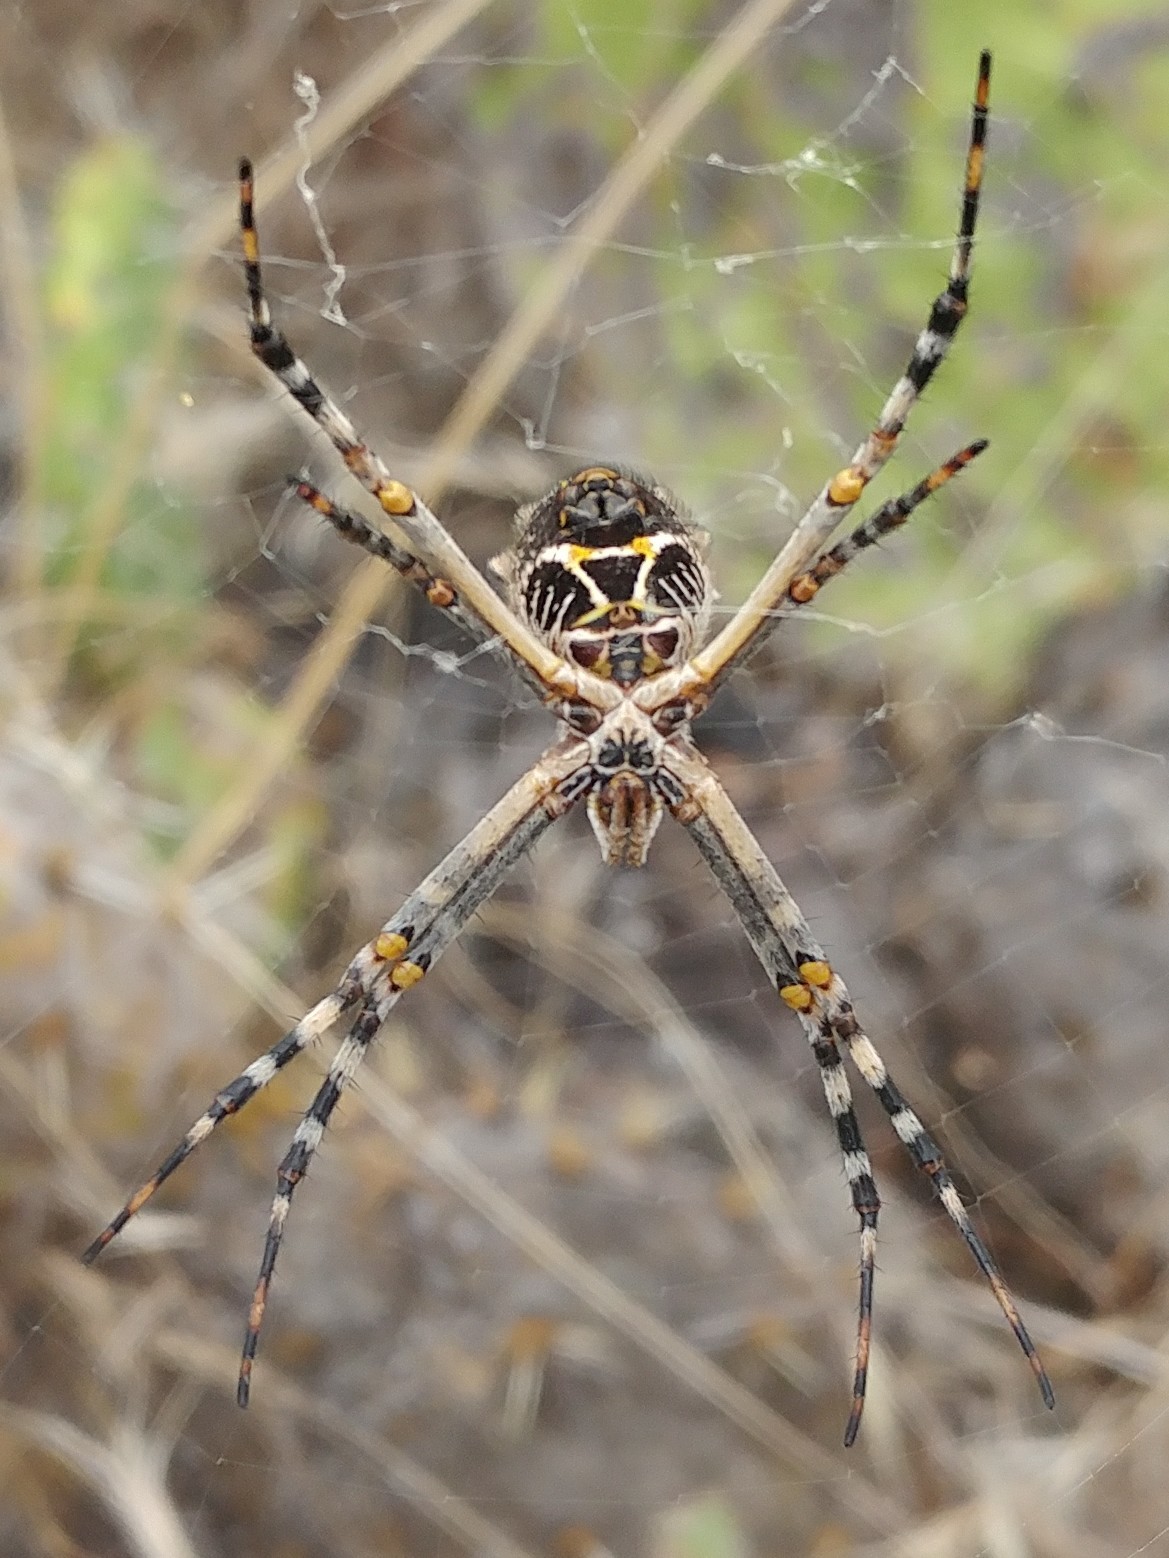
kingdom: Animalia
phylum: Arthropoda
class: Arachnida
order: Araneae
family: Araneidae
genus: Argiope
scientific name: Argiope argentata
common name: Orb weavers
